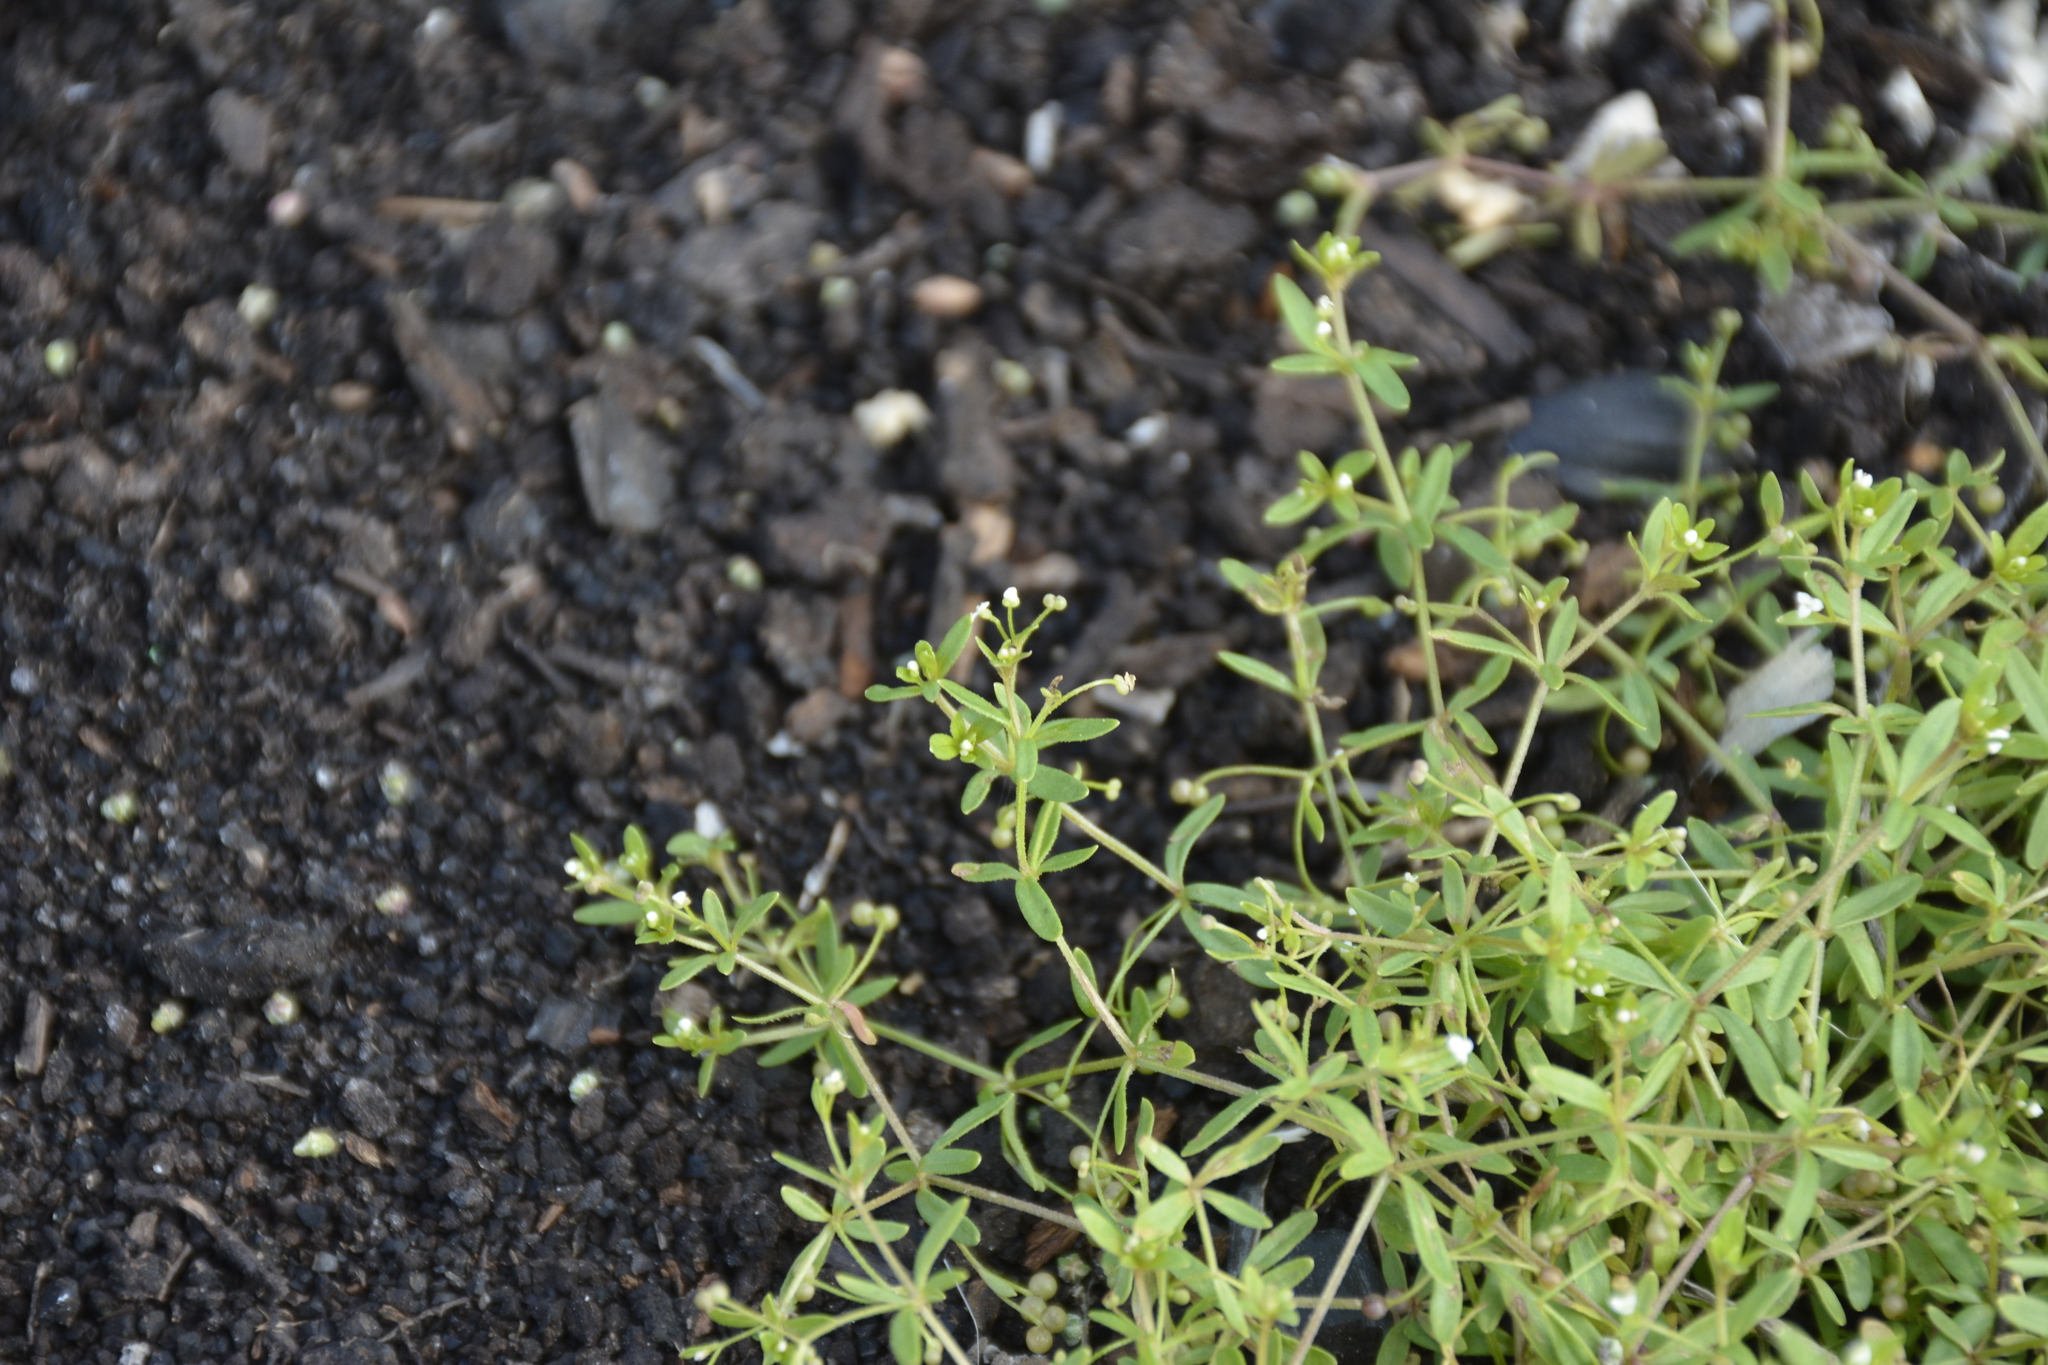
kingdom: Plantae
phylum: Tracheophyta
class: Magnoliopsida
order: Gentianales
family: Rubiaceae
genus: Galium
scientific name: Galium trifidum
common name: Small bedstraw
